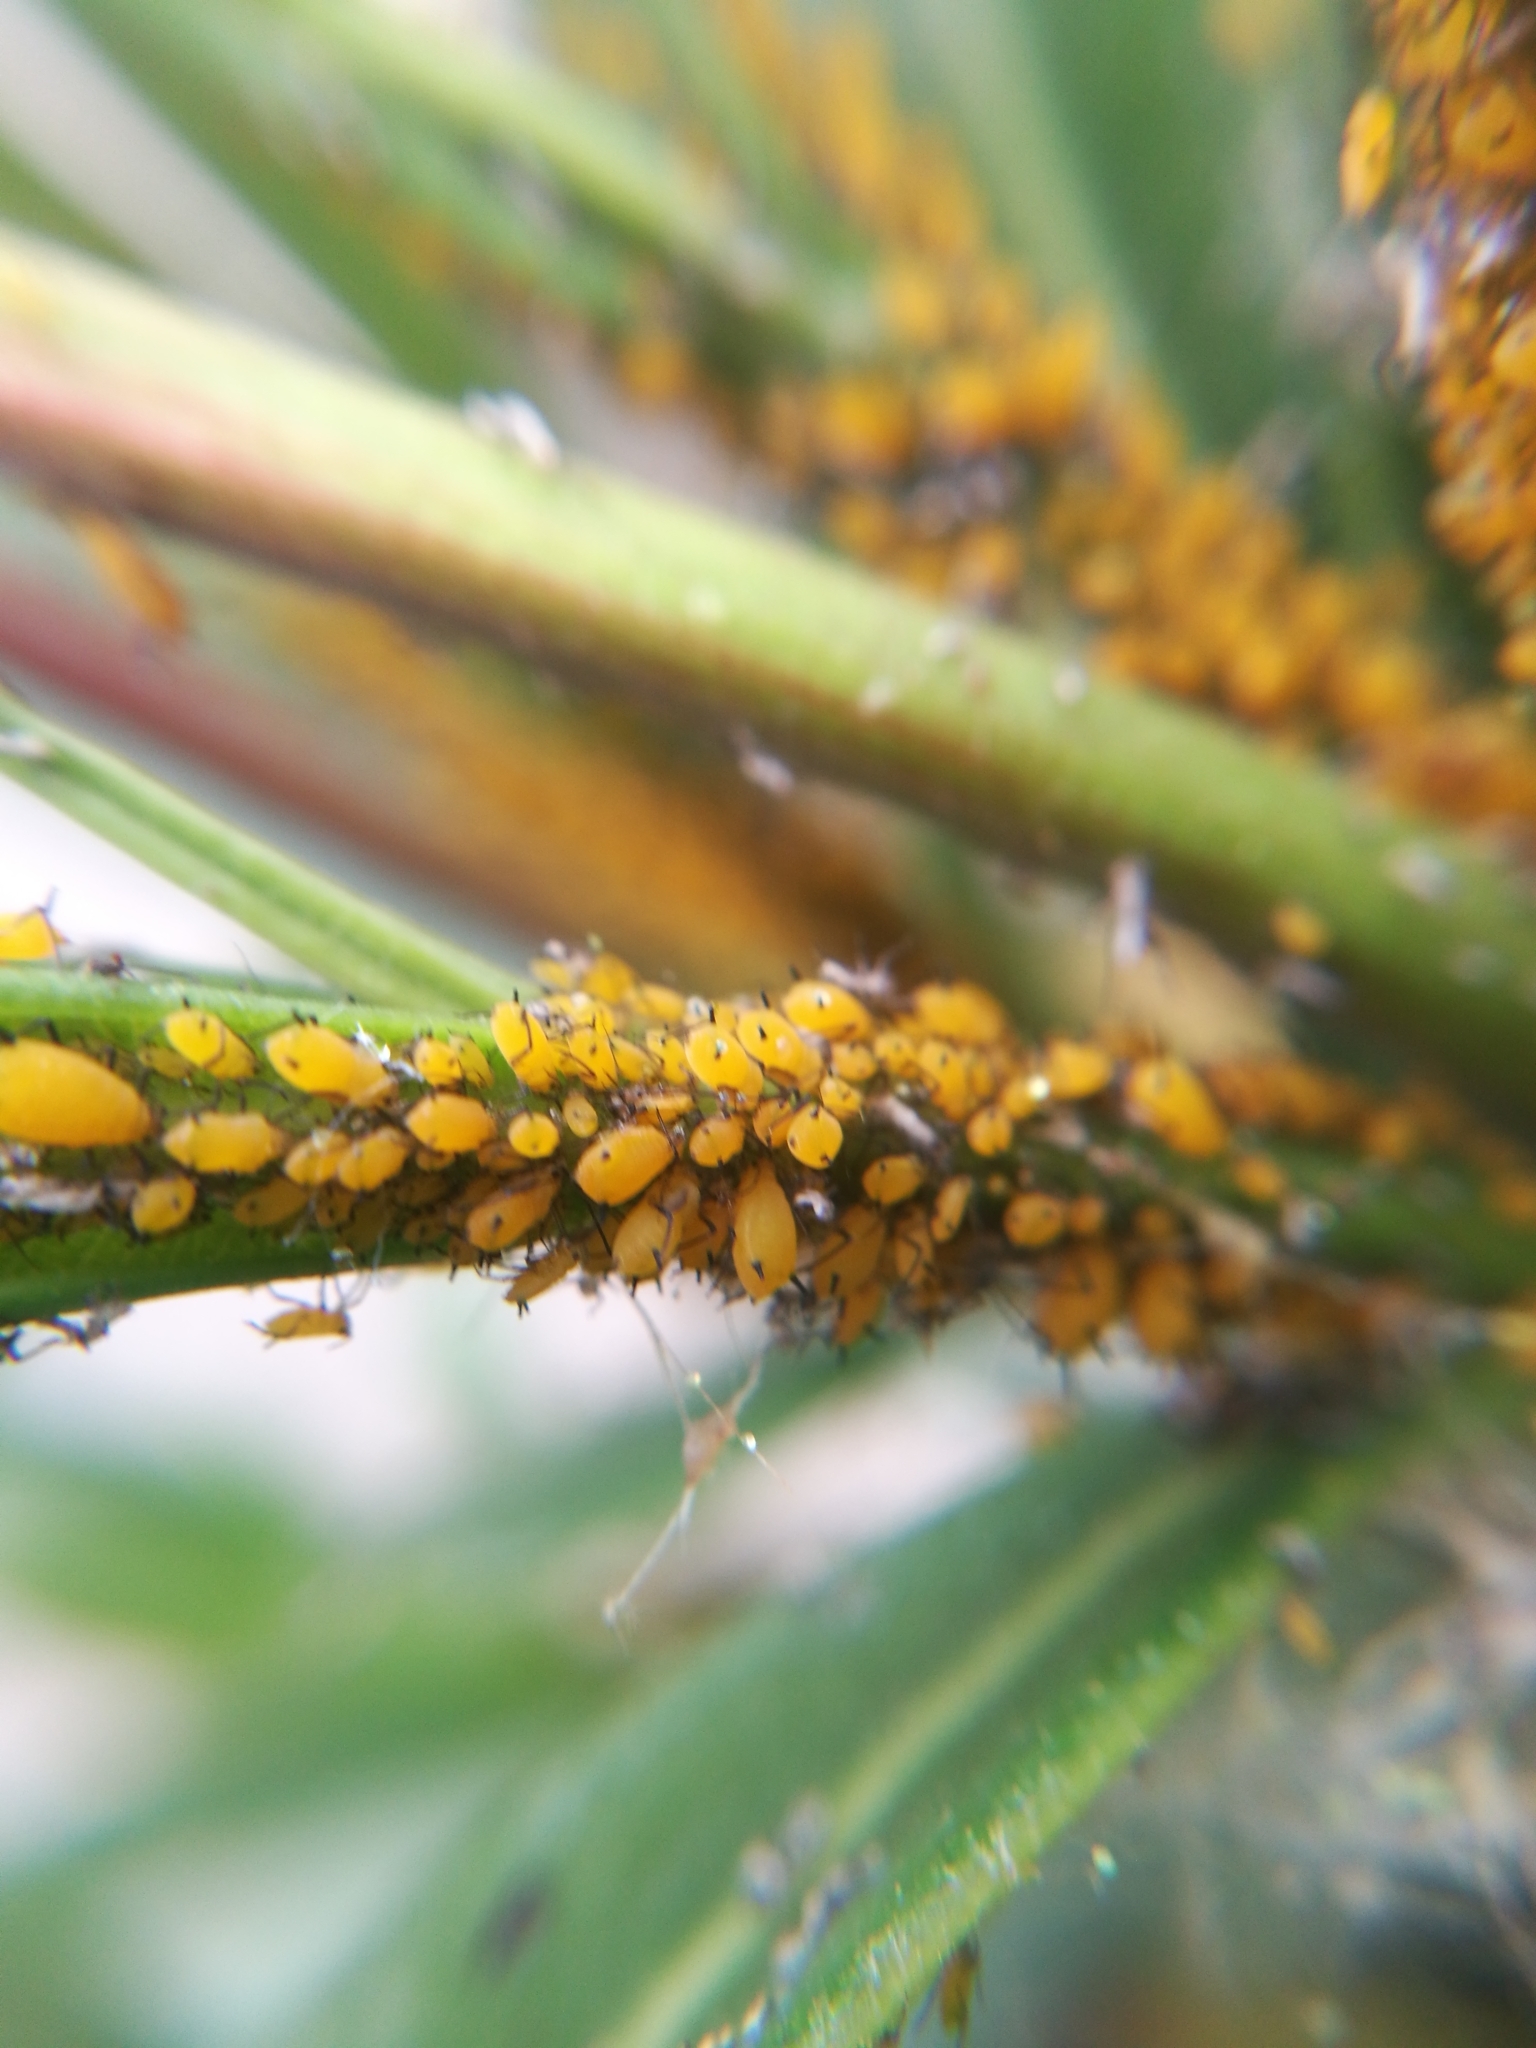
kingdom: Animalia
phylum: Arthropoda
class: Insecta
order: Hemiptera
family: Aphididae
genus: Aphis
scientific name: Aphis nerii
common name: Oleander aphid
